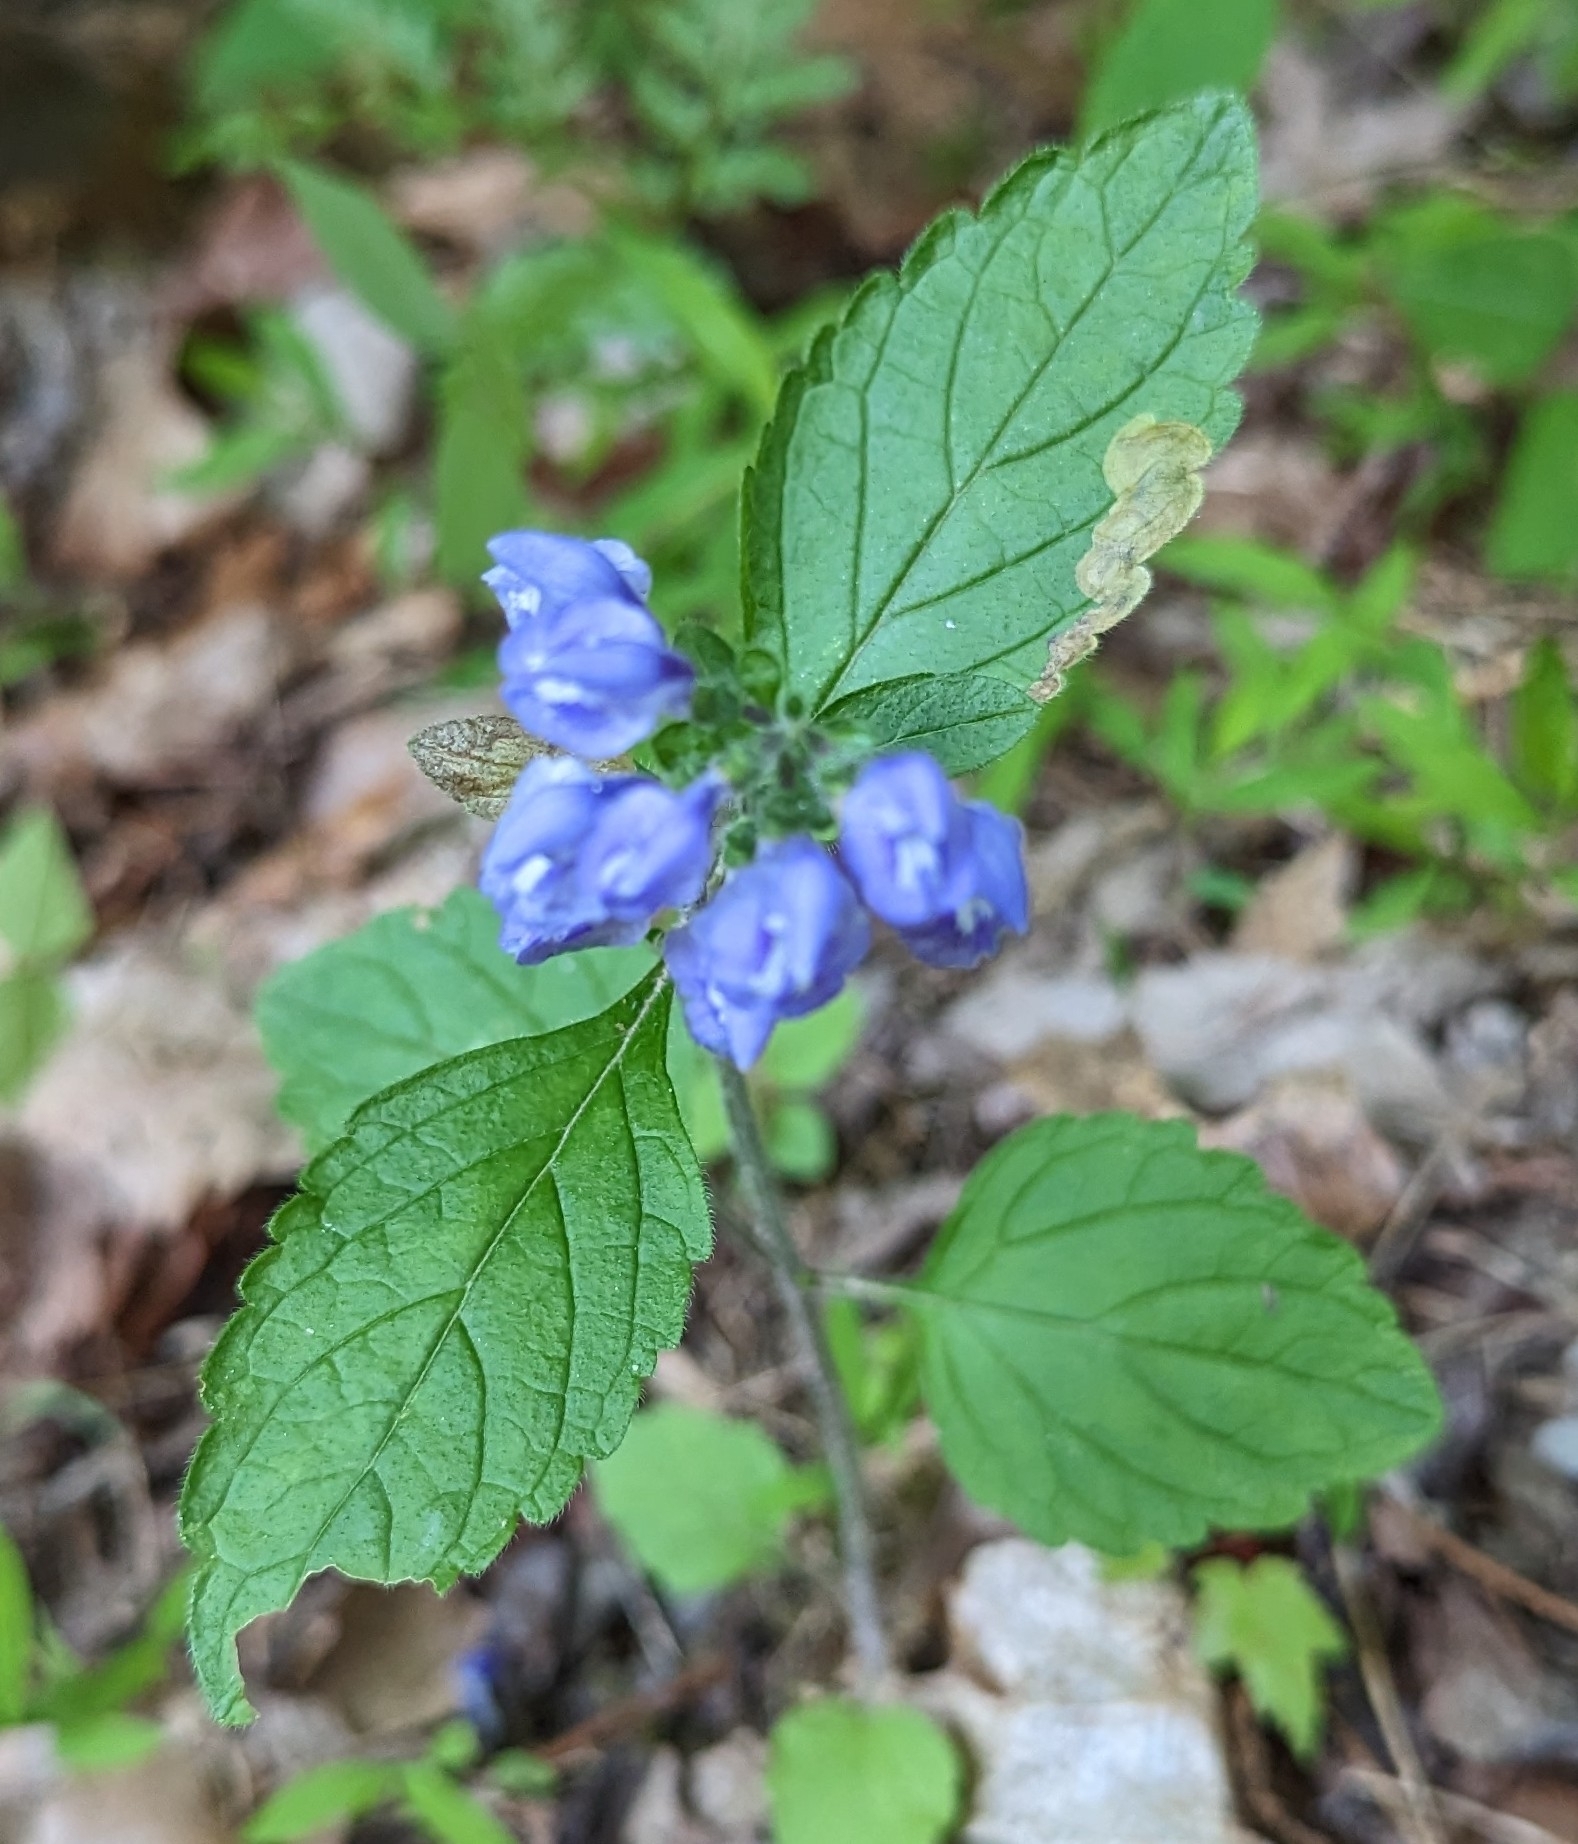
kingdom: Plantae
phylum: Tracheophyta
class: Magnoliopsida
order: Lamiales
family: Lamiaceae
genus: Scutellaria
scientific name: Scutellaria elliptica
